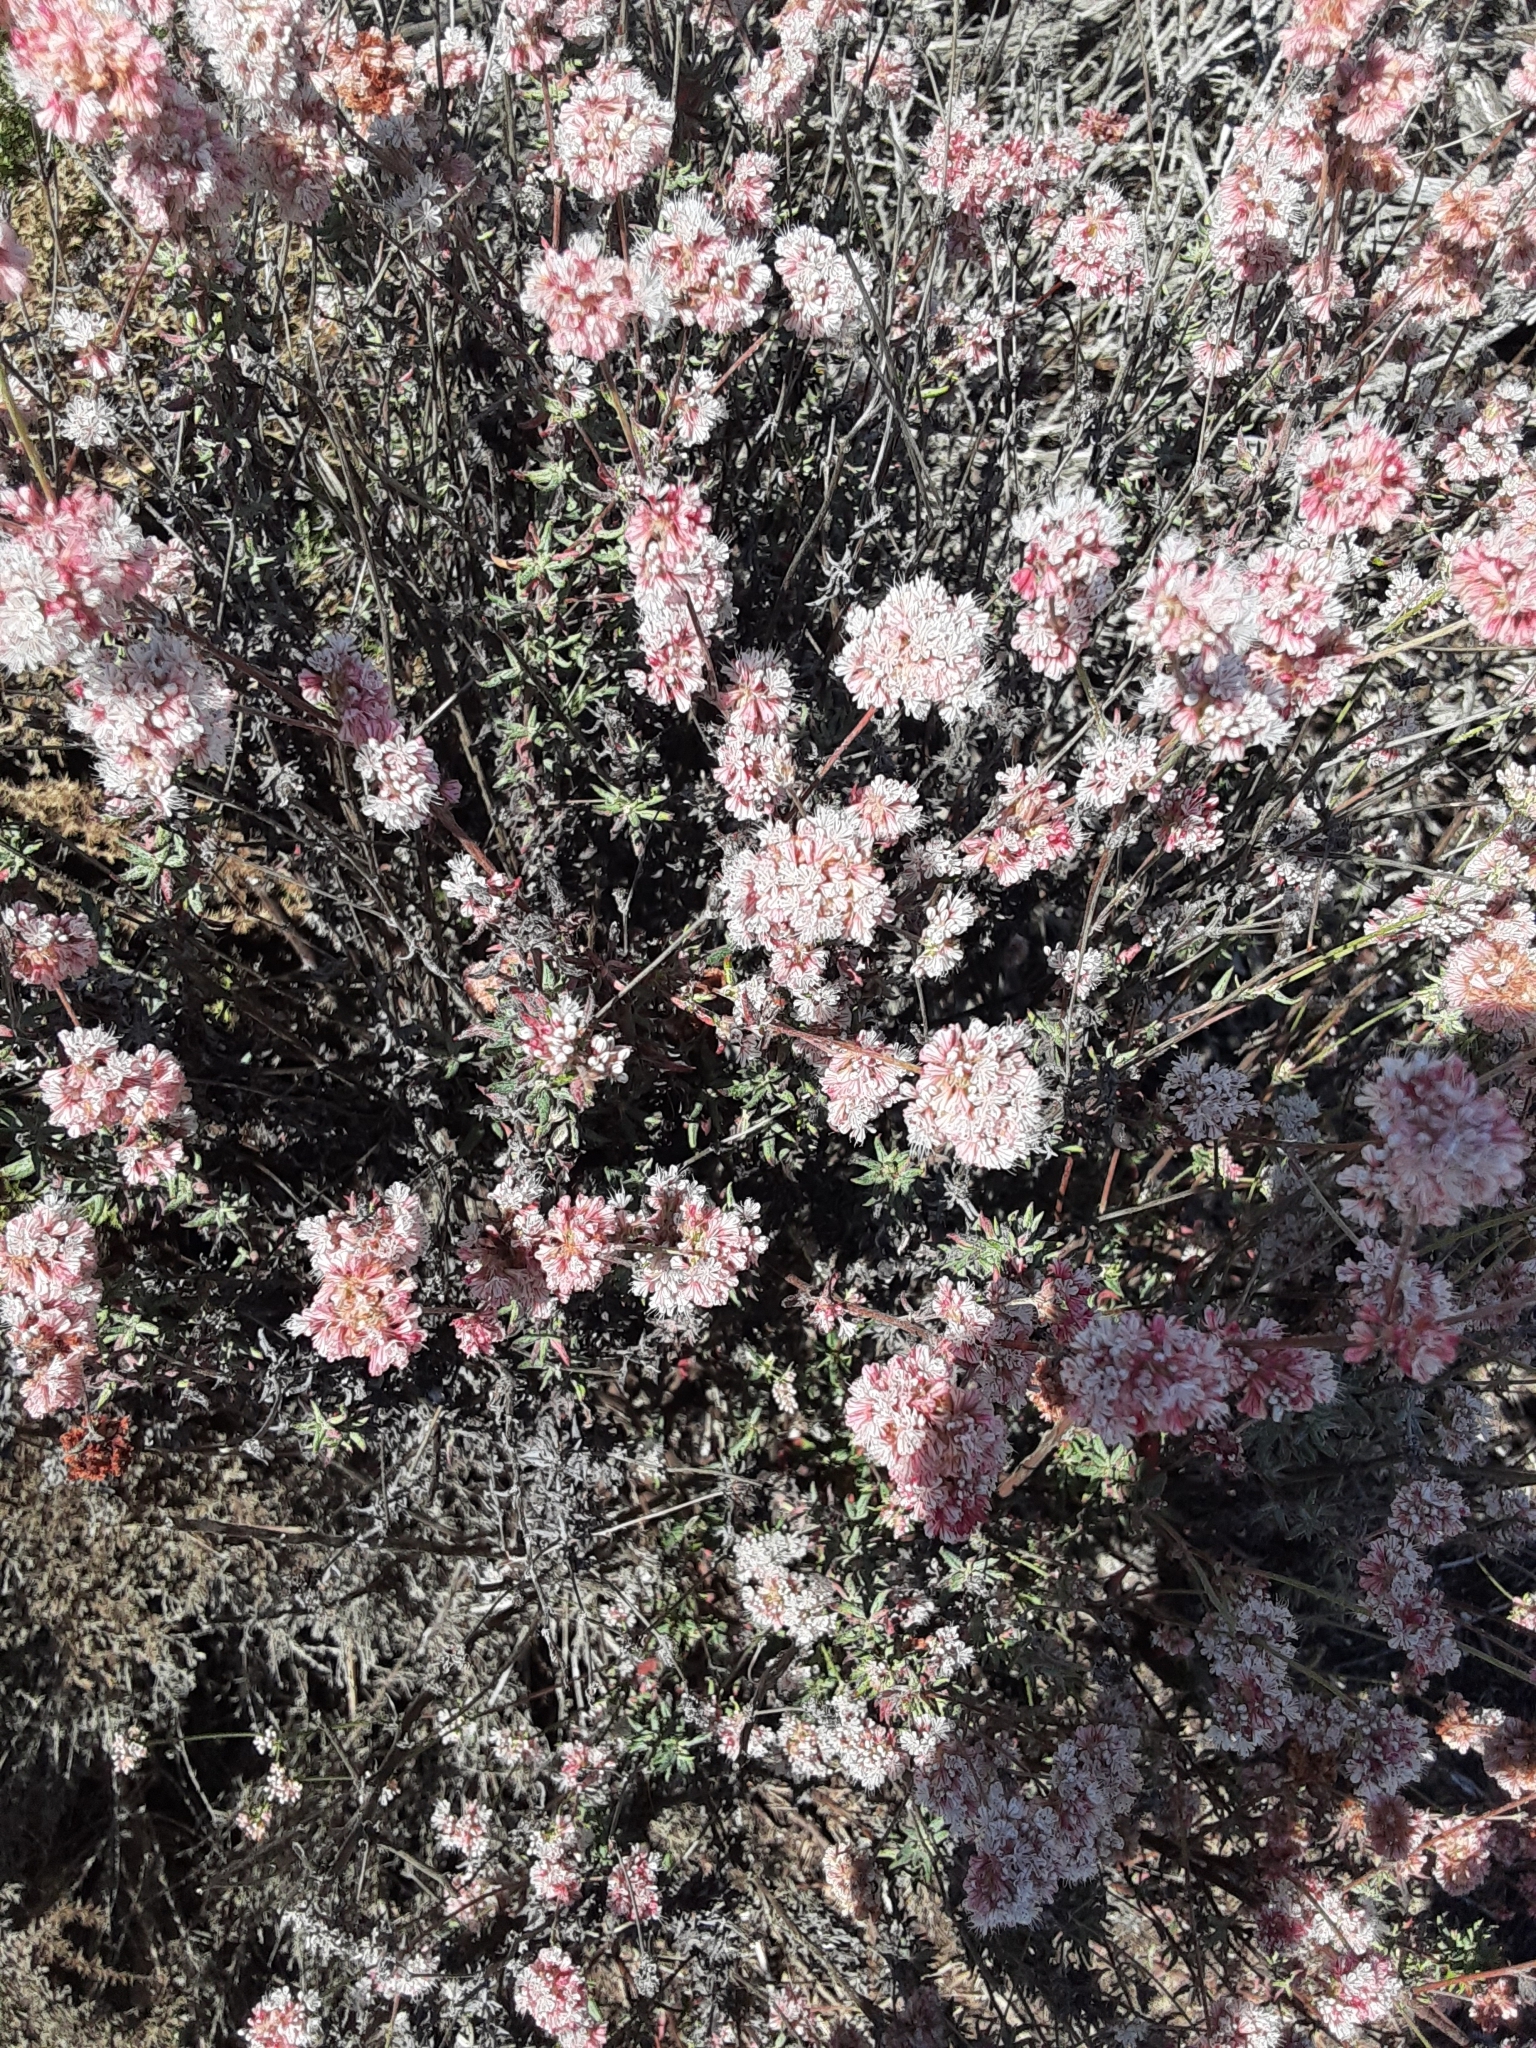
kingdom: Plantae
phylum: Tracheophyta
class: Magnoliopsida
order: Caryophyllales
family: Polygonaceae
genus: Eriogonum
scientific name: Eriogonum parvifolium
